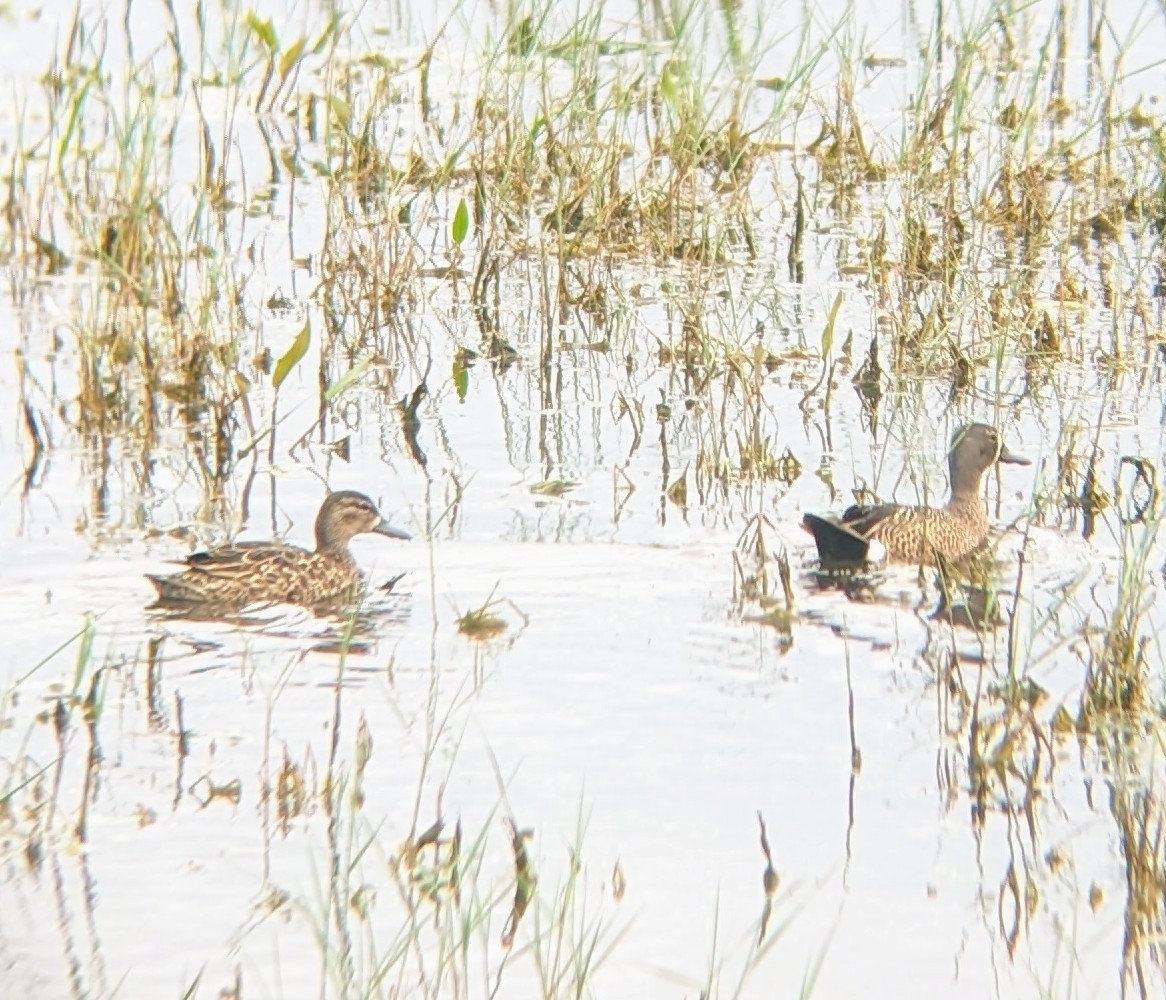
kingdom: Animalia
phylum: Chordata
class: Aves
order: Anseriformes
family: Anatidae
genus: Spatula
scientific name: Spatula discors
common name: Blue-winged teal
